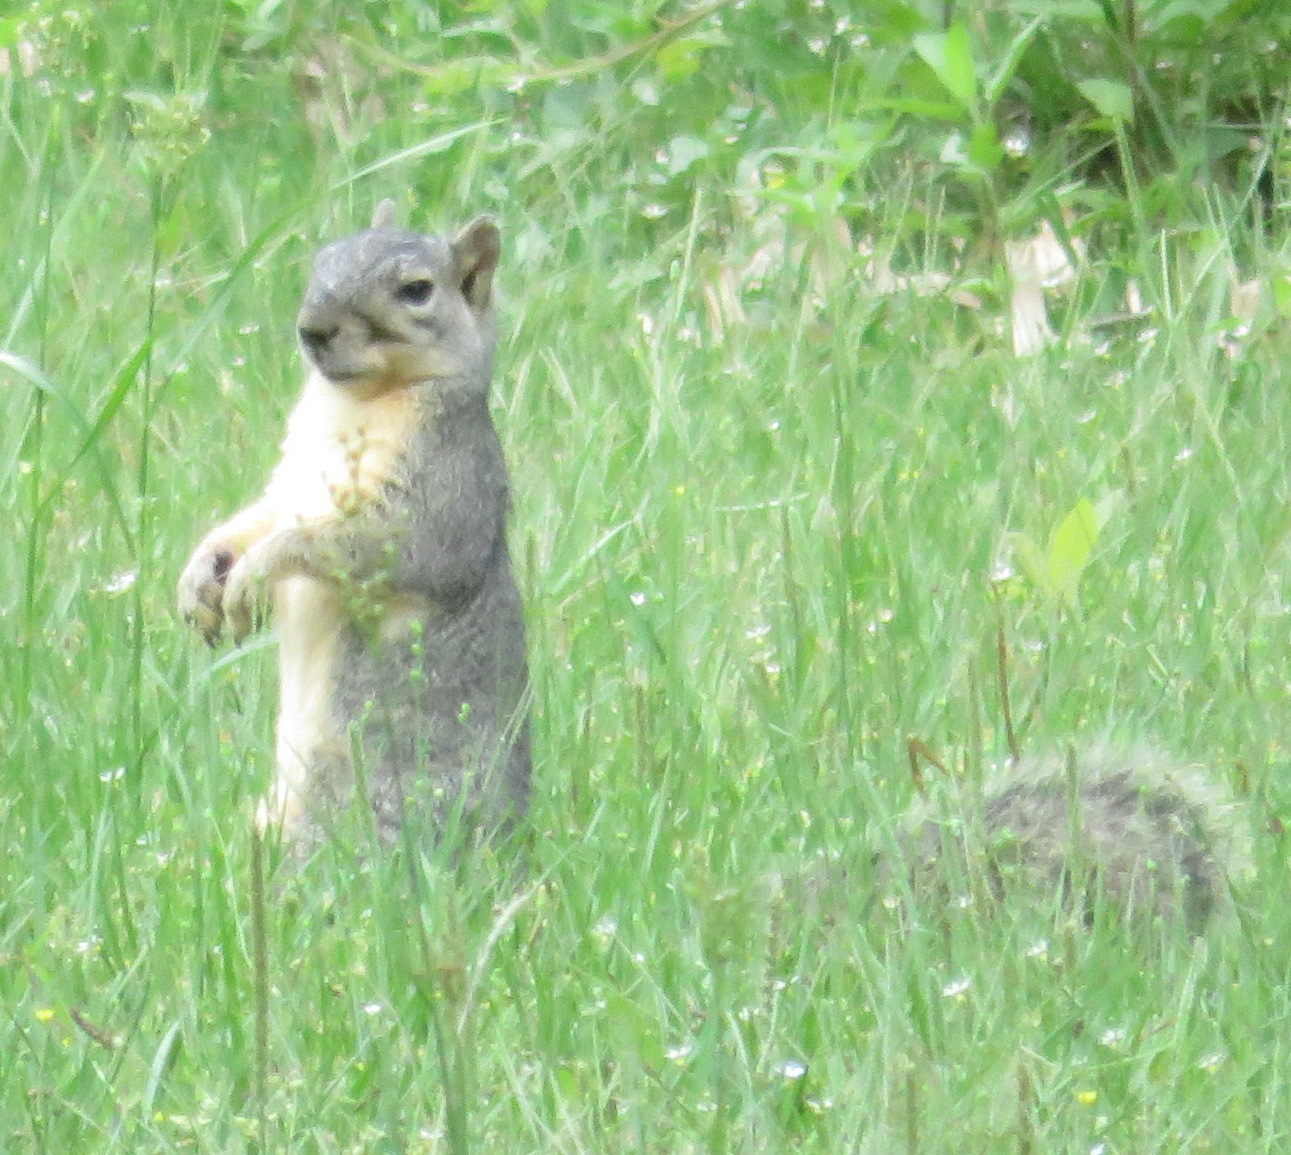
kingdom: Animalia
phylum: Chordata
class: Mammalia
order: Rodentia
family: Sciuridae
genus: Sciurus
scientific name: Sciurus niger
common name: Fox squirrel
